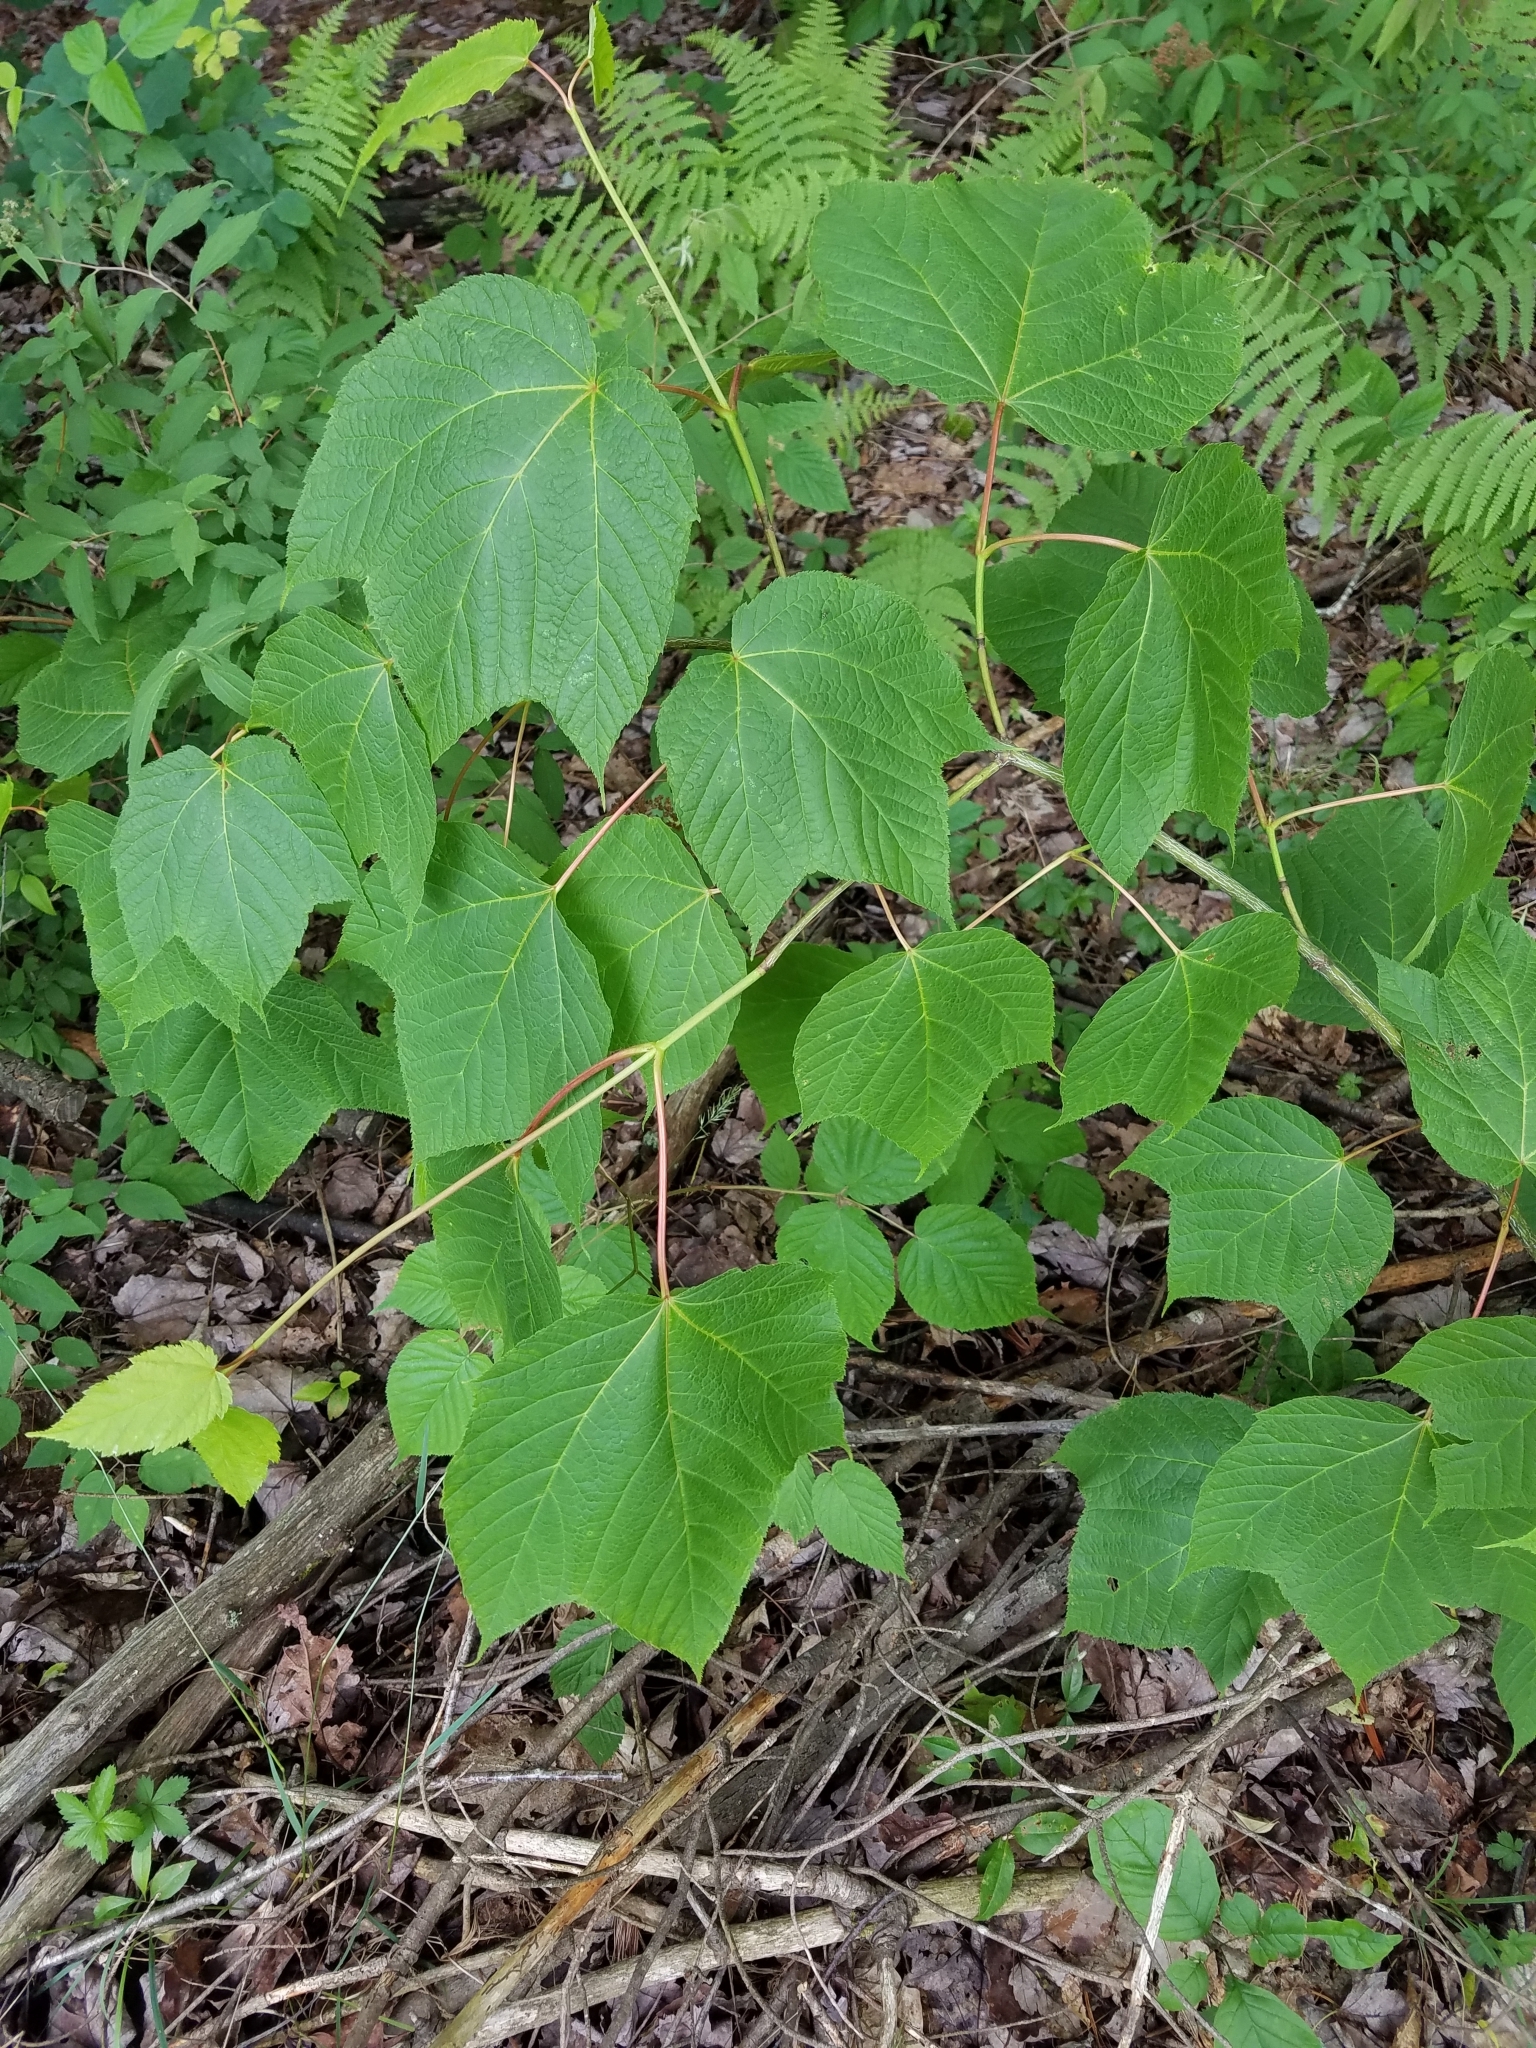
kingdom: Plantae
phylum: Tracheophyta
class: Magnoliopsida
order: Sapindales
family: Sapindaceae
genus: Acer
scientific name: Acer pensylvanicum
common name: Moosewood
